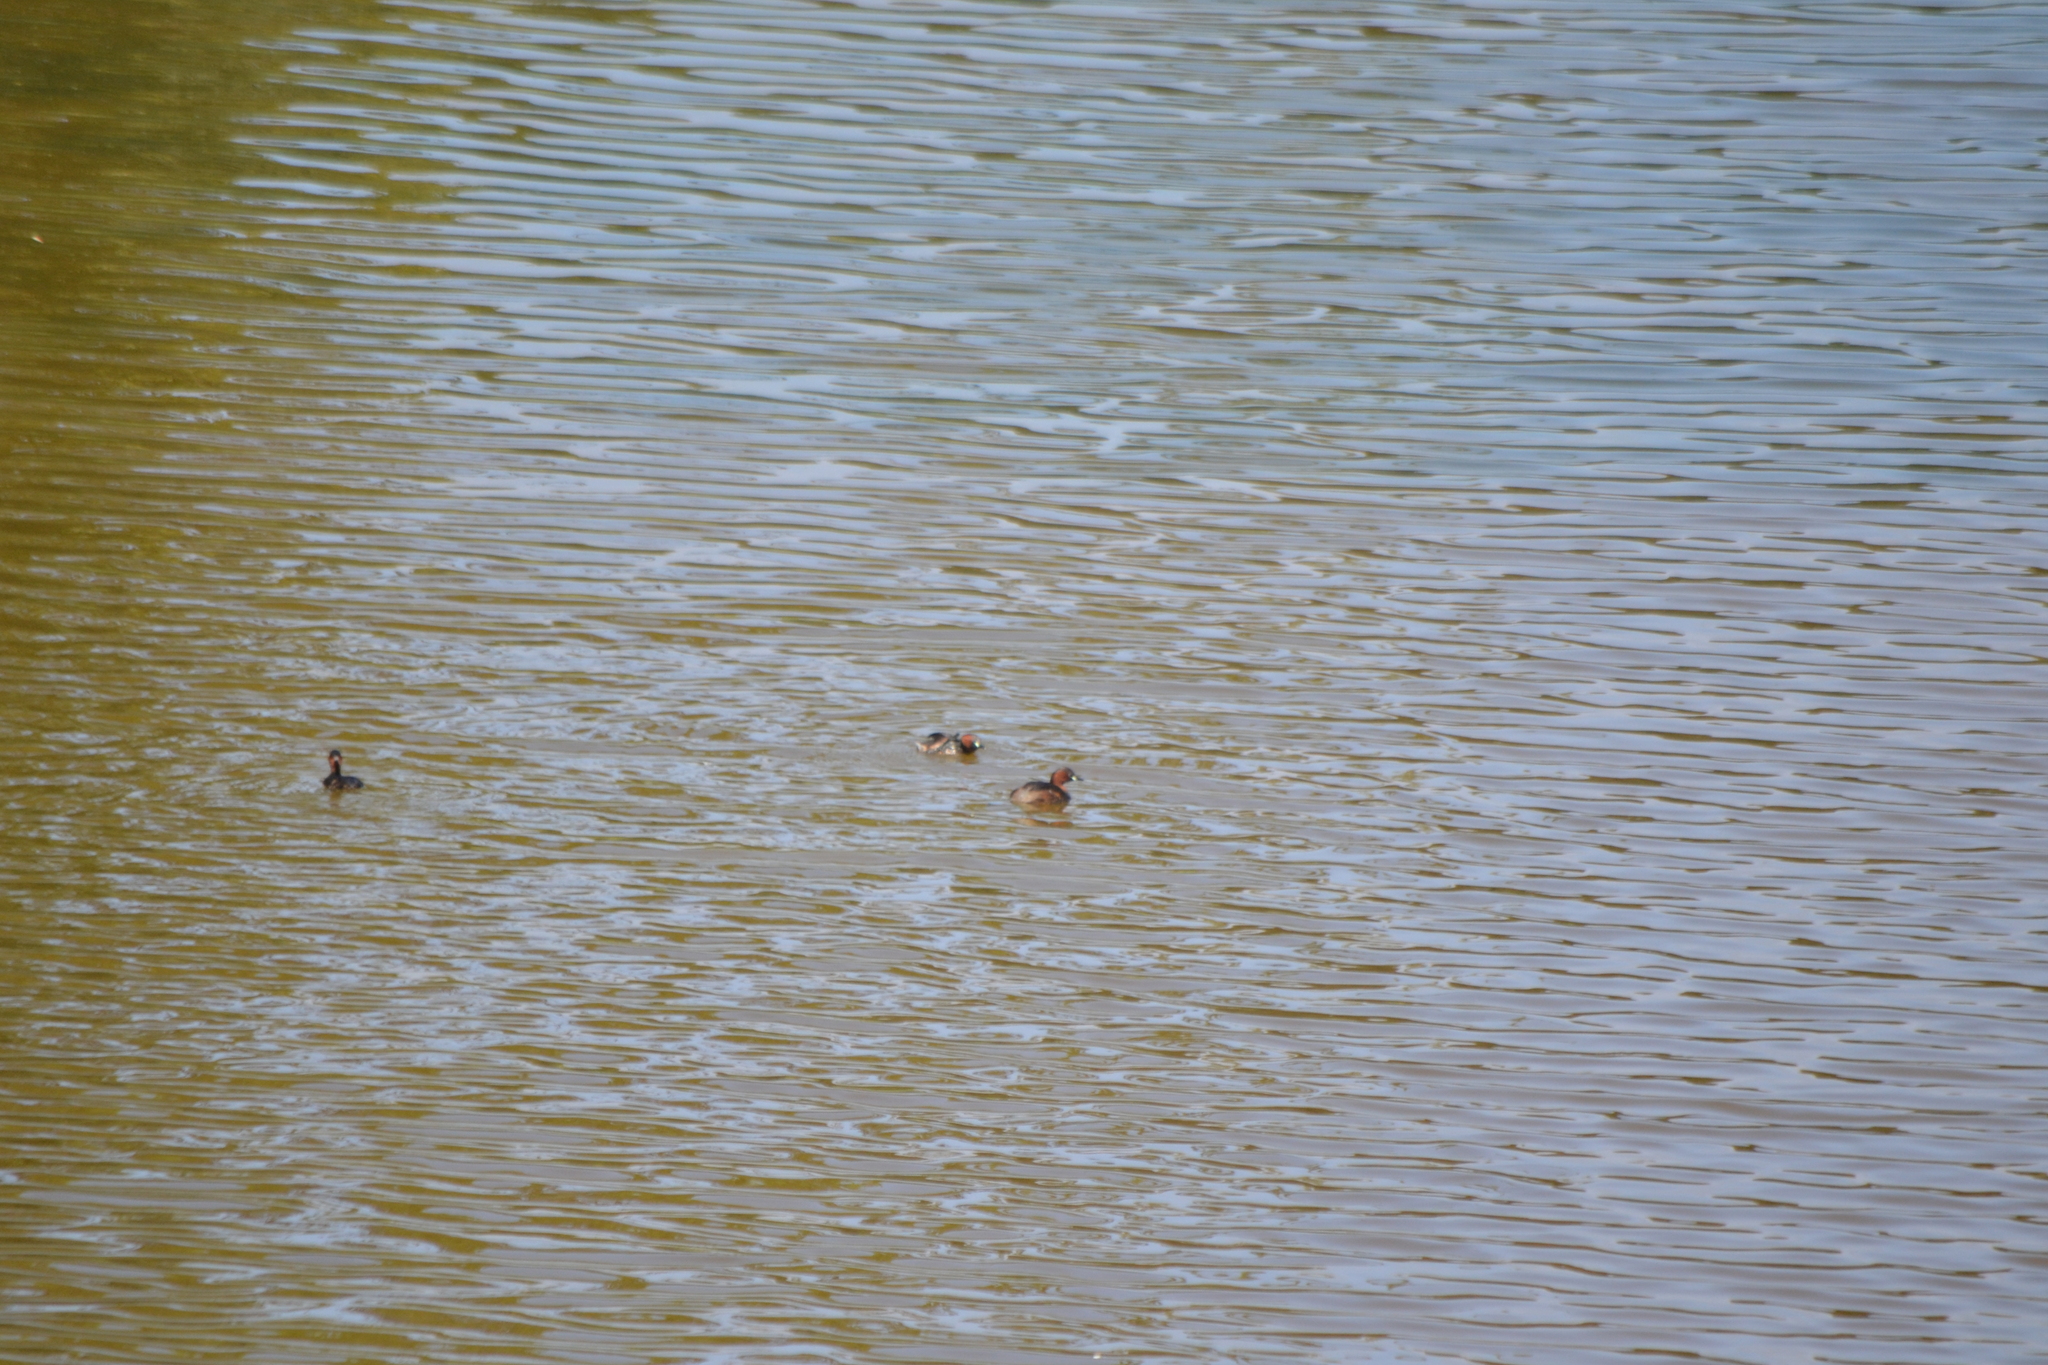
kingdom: Animalia
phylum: Chordata
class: Aves
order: Podicipediformes
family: Podicipedidae
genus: Tachybaptus
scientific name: Tachybaptus ruficollis
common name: Little grebe
